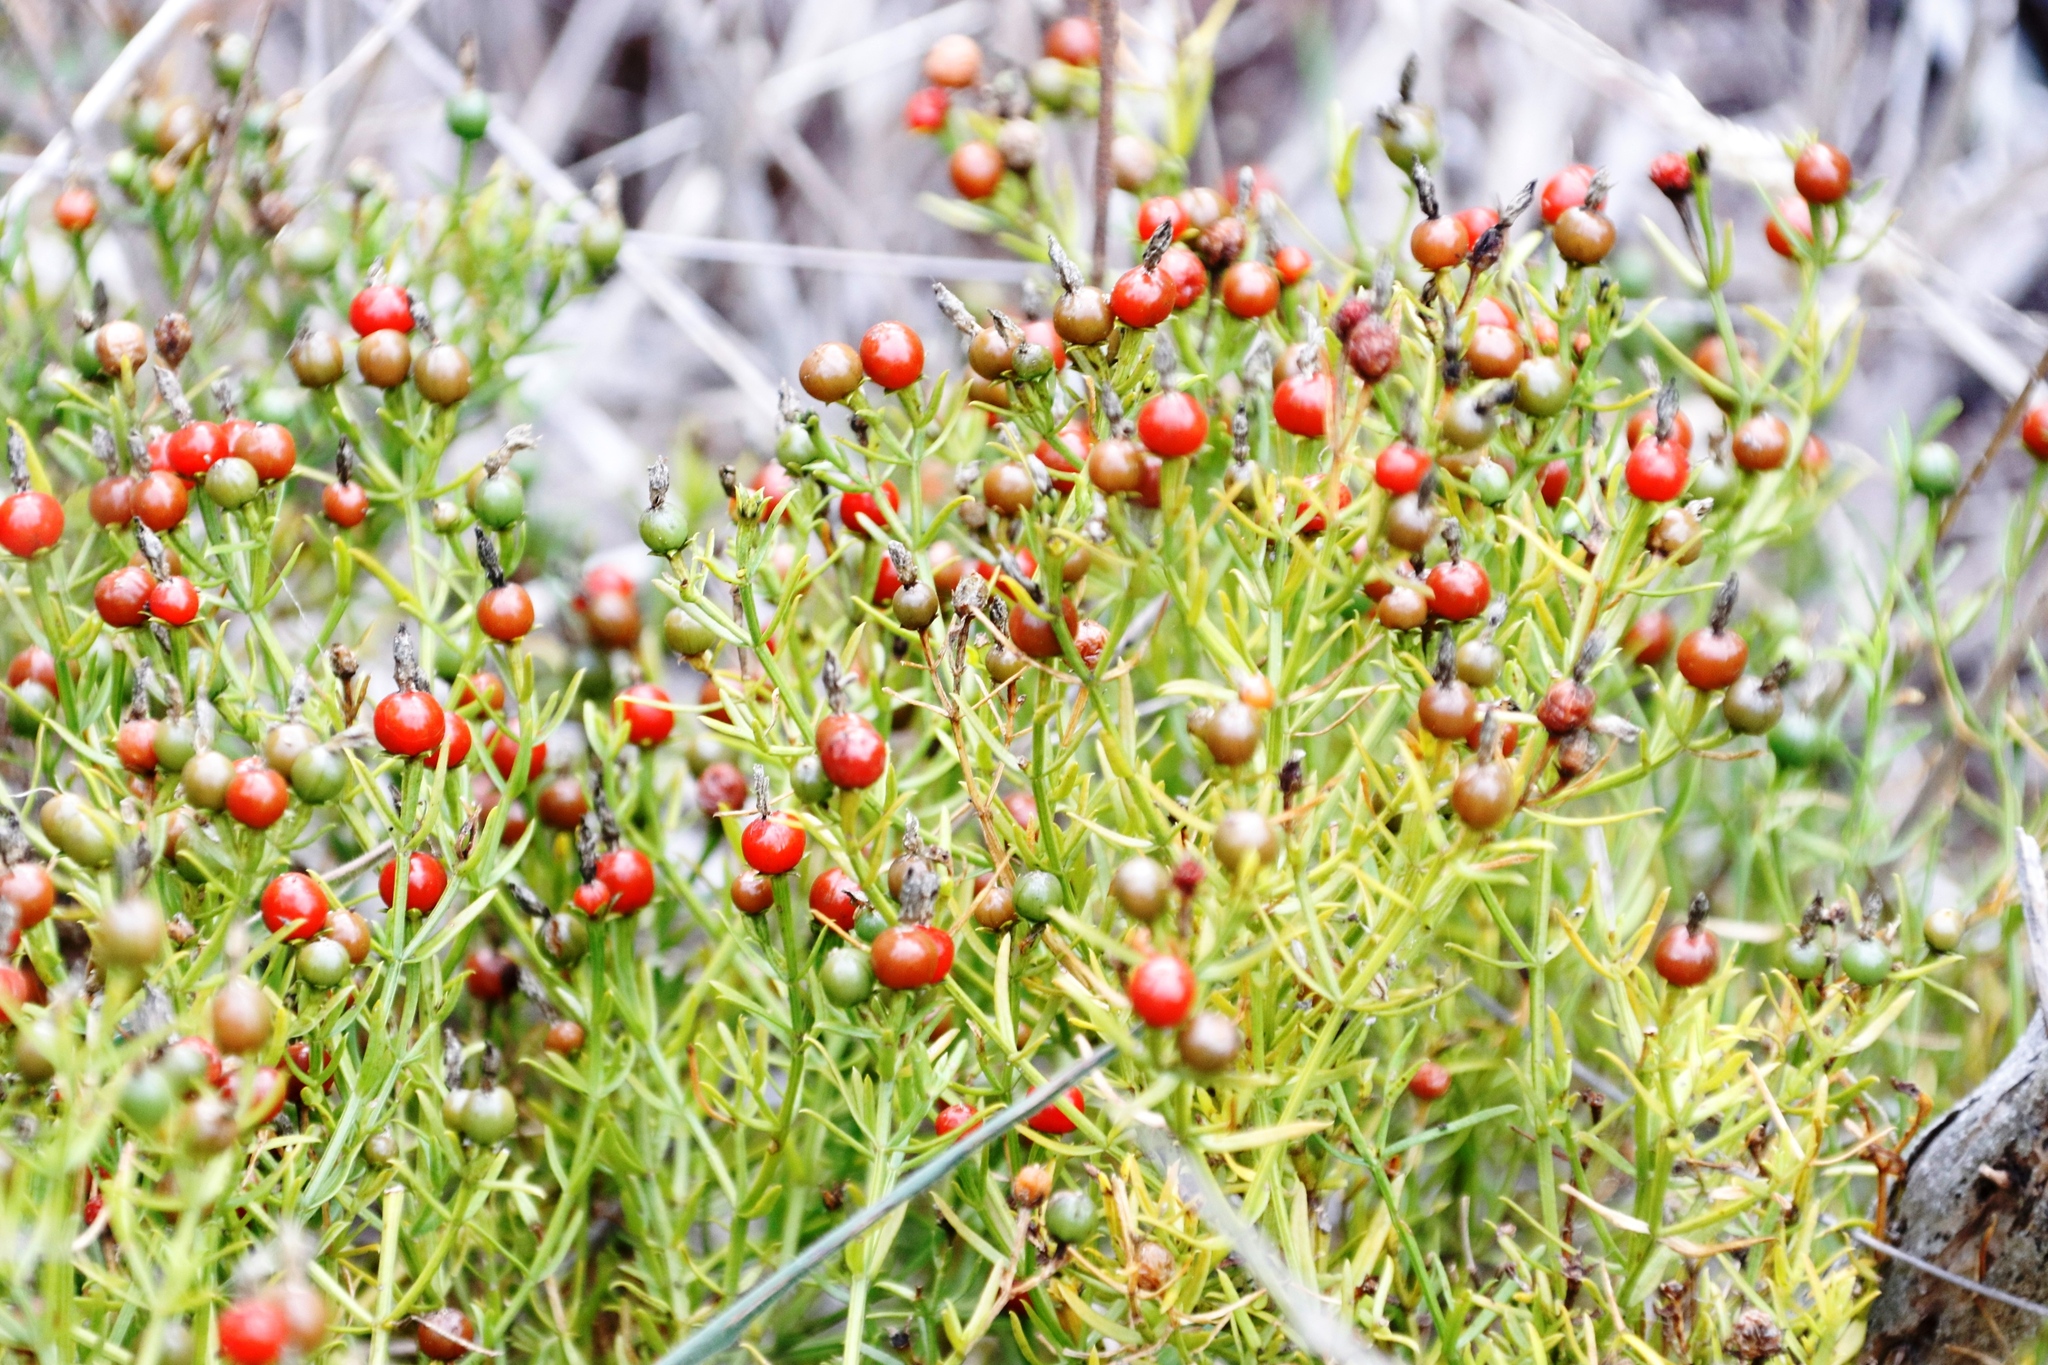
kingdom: Plantae
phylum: Tracheophyta
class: Magnoliopsida
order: Gentianales
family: Gentianaceae
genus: Chironia
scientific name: Chironia baccifera
